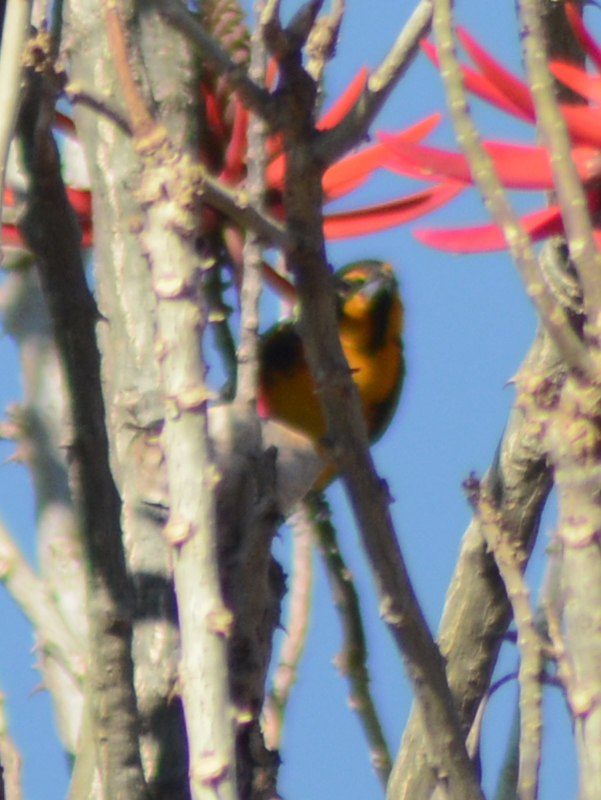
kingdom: Animalia
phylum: Chordata
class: Aves
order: Passeriformes
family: Icteridae
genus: Icterus
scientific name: Icterus abeillei
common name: Black-backed oriole
